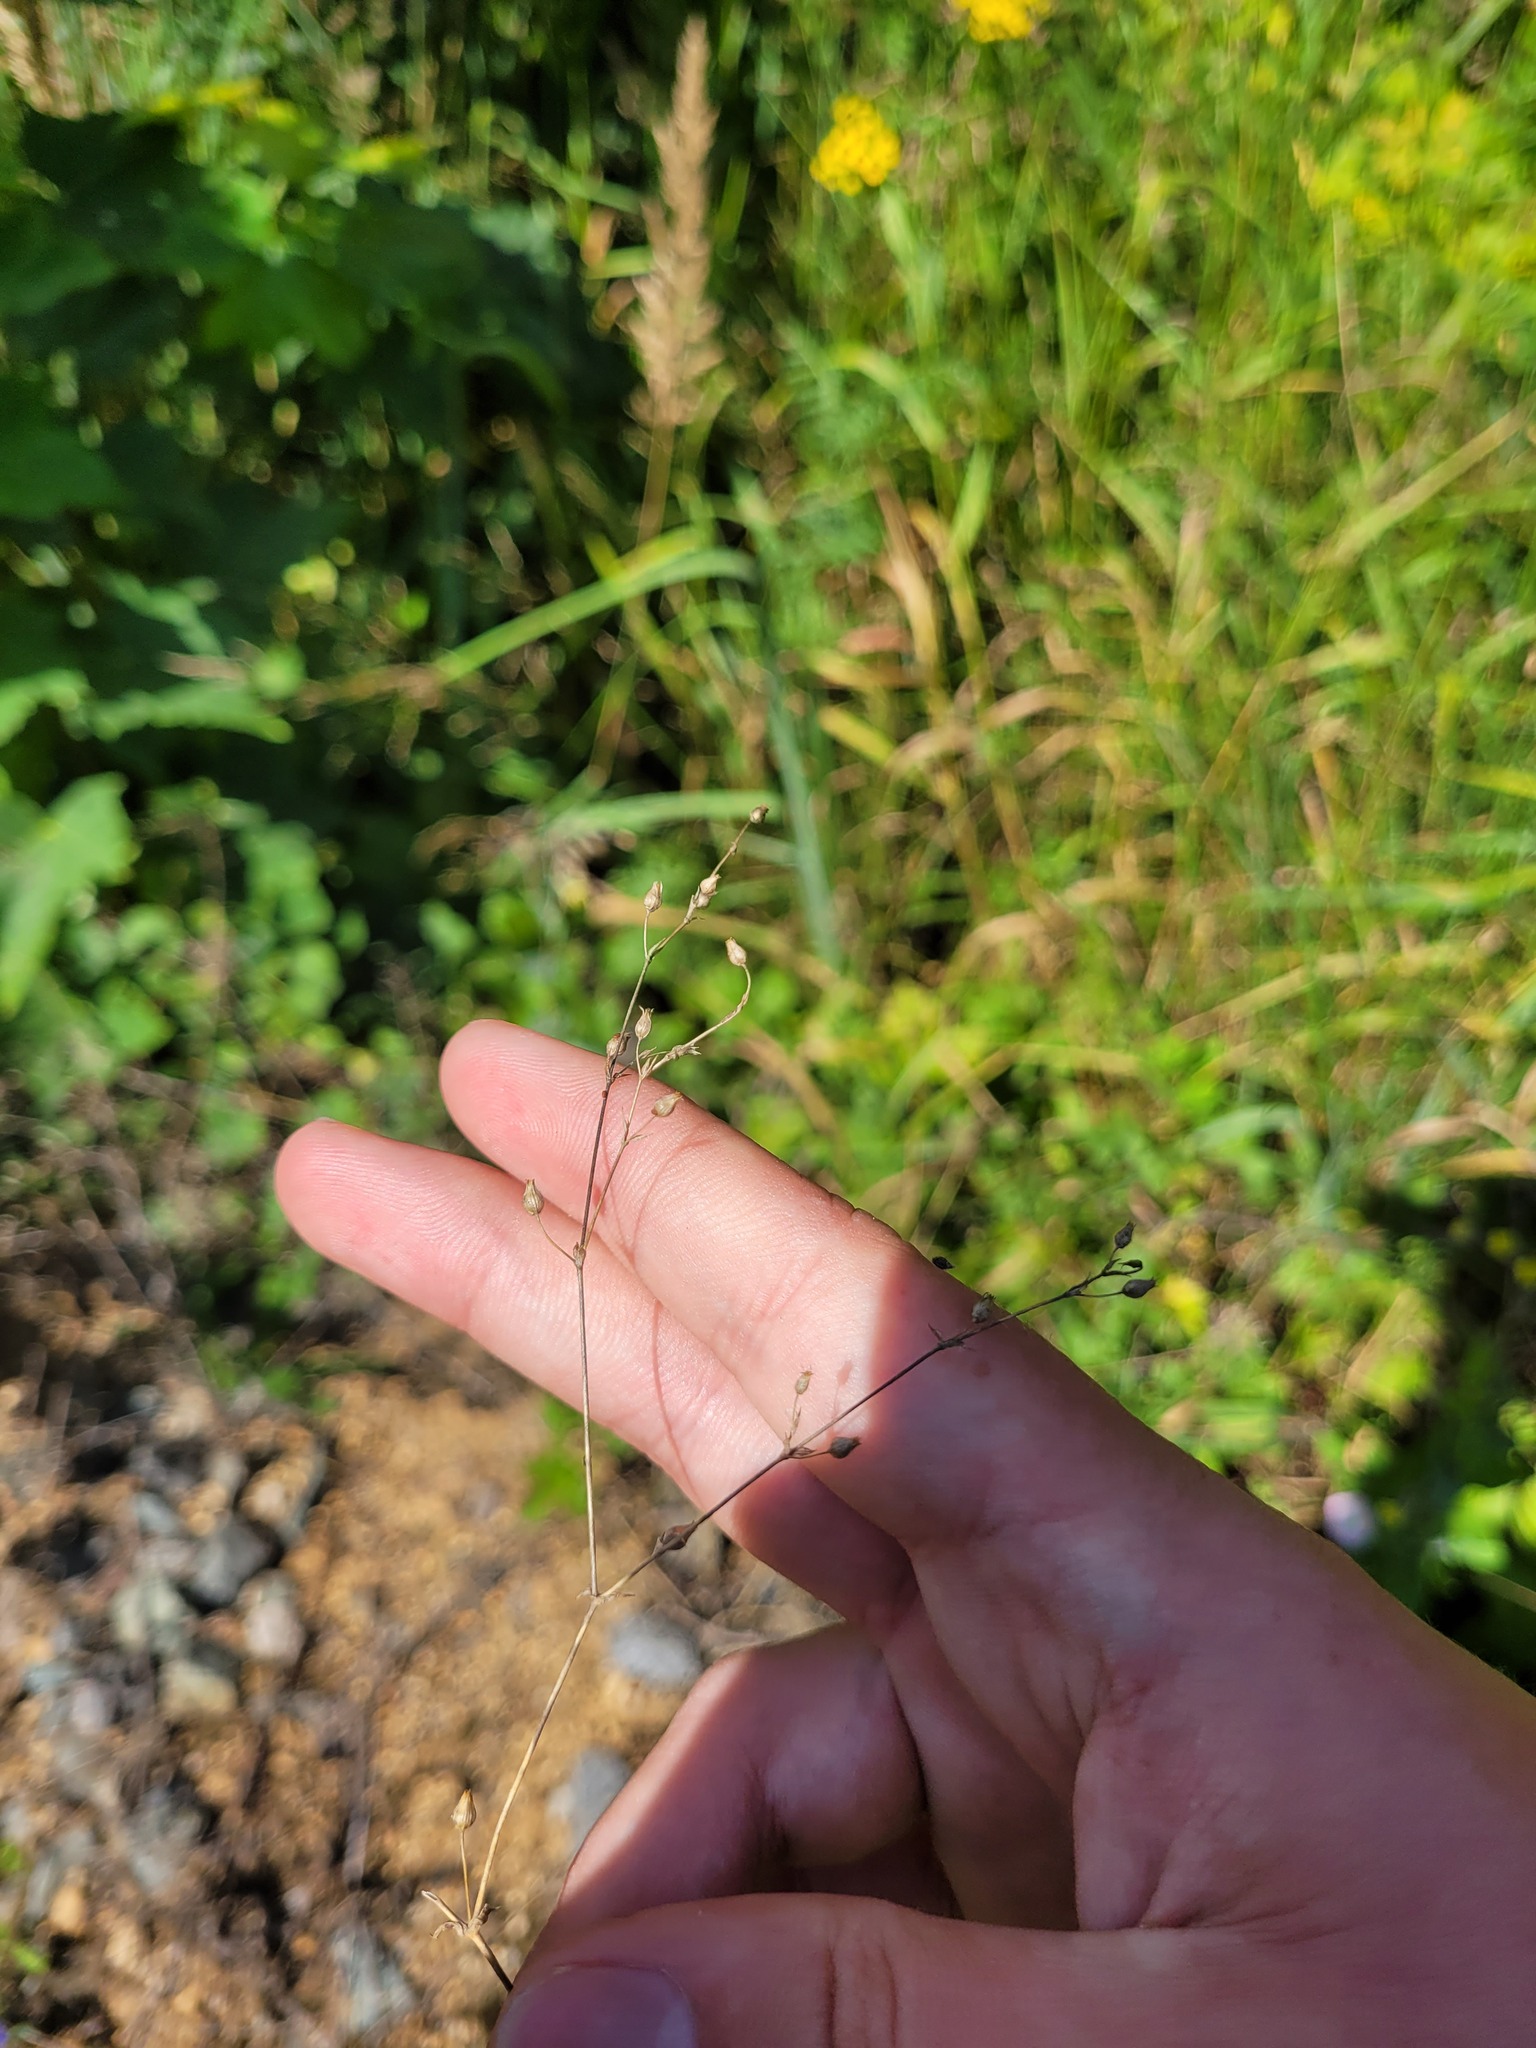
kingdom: Plantae
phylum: Tracheophyta
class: Magnoliopsida
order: Caryophyllales
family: Caryophyllaceae
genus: Arenaria
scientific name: Arenaria serpyllifolia
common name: Thyme-leaved sandwort
